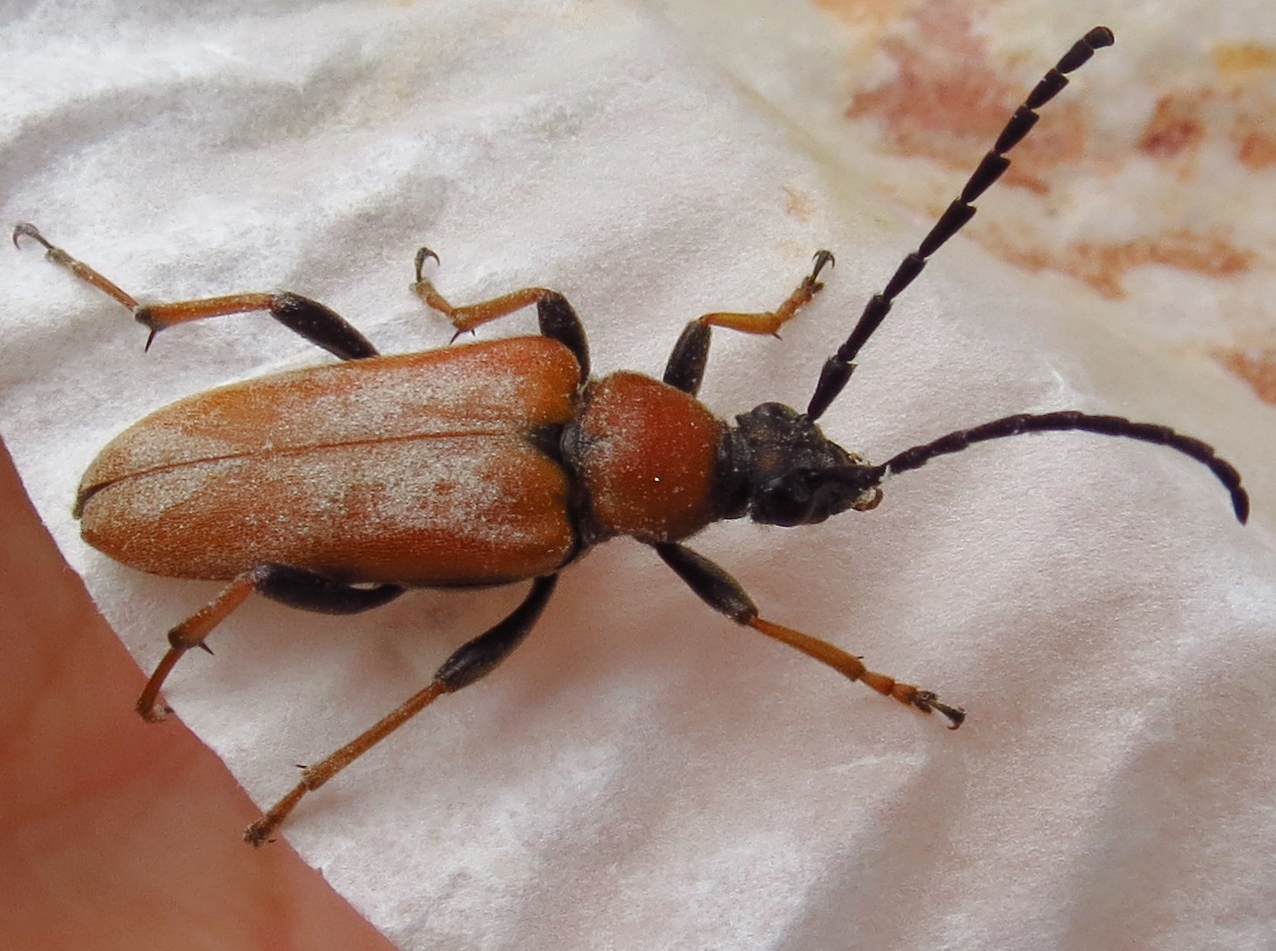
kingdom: Animalia
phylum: Arthropoda
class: Insecta
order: Coleoptera
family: Cerambycidae
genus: Stictoleptura
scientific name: Stictoleptura rubra
